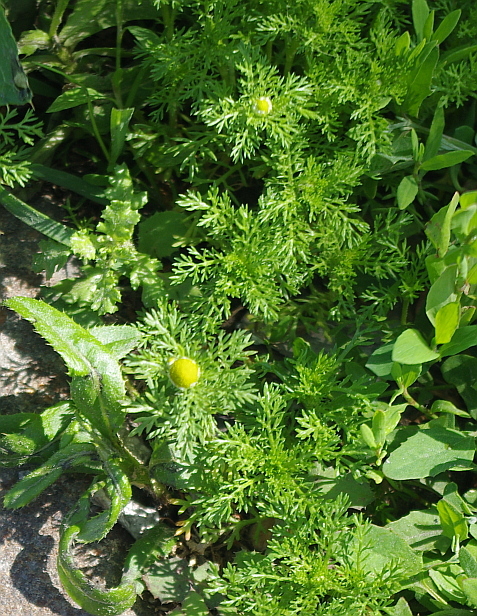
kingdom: Plantae
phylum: Tracheophyta
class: Magnoliopsida
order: Asterales
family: Asteraceae
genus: Matricaria
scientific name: Matricaria discoidea
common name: Disc mayweed
